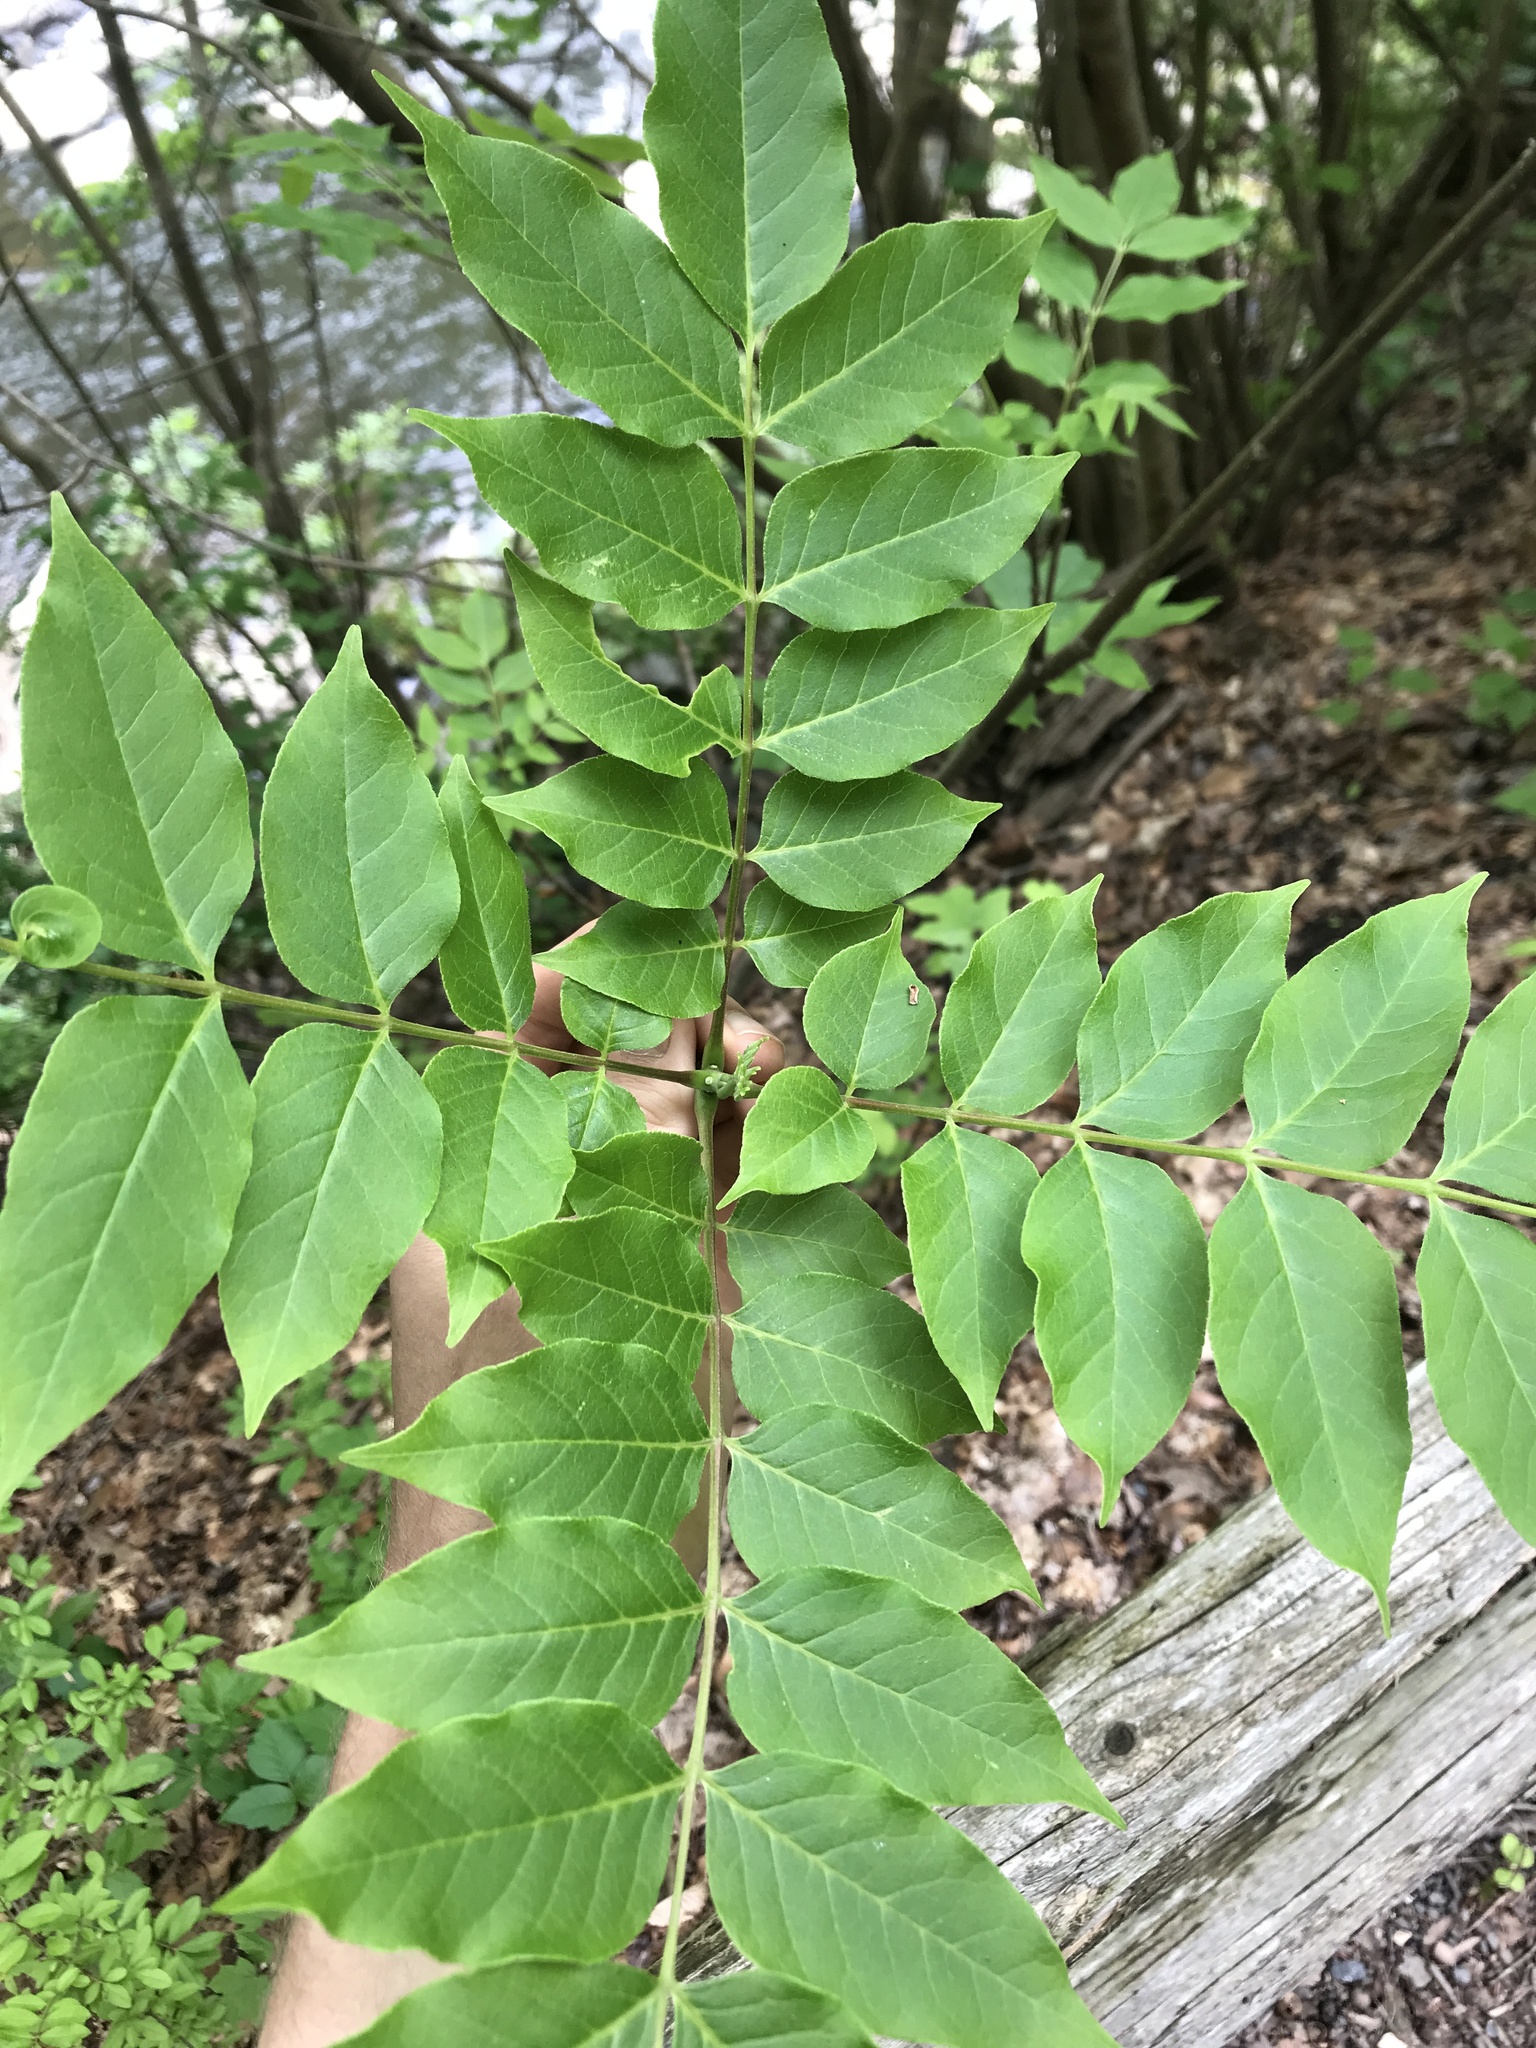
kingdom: Plantae
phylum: Tracheophyta
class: Magnoliopsida
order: Sapindales
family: Rutaceae
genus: Phellodendron
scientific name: Phellodendron amurense
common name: Amur corktree
